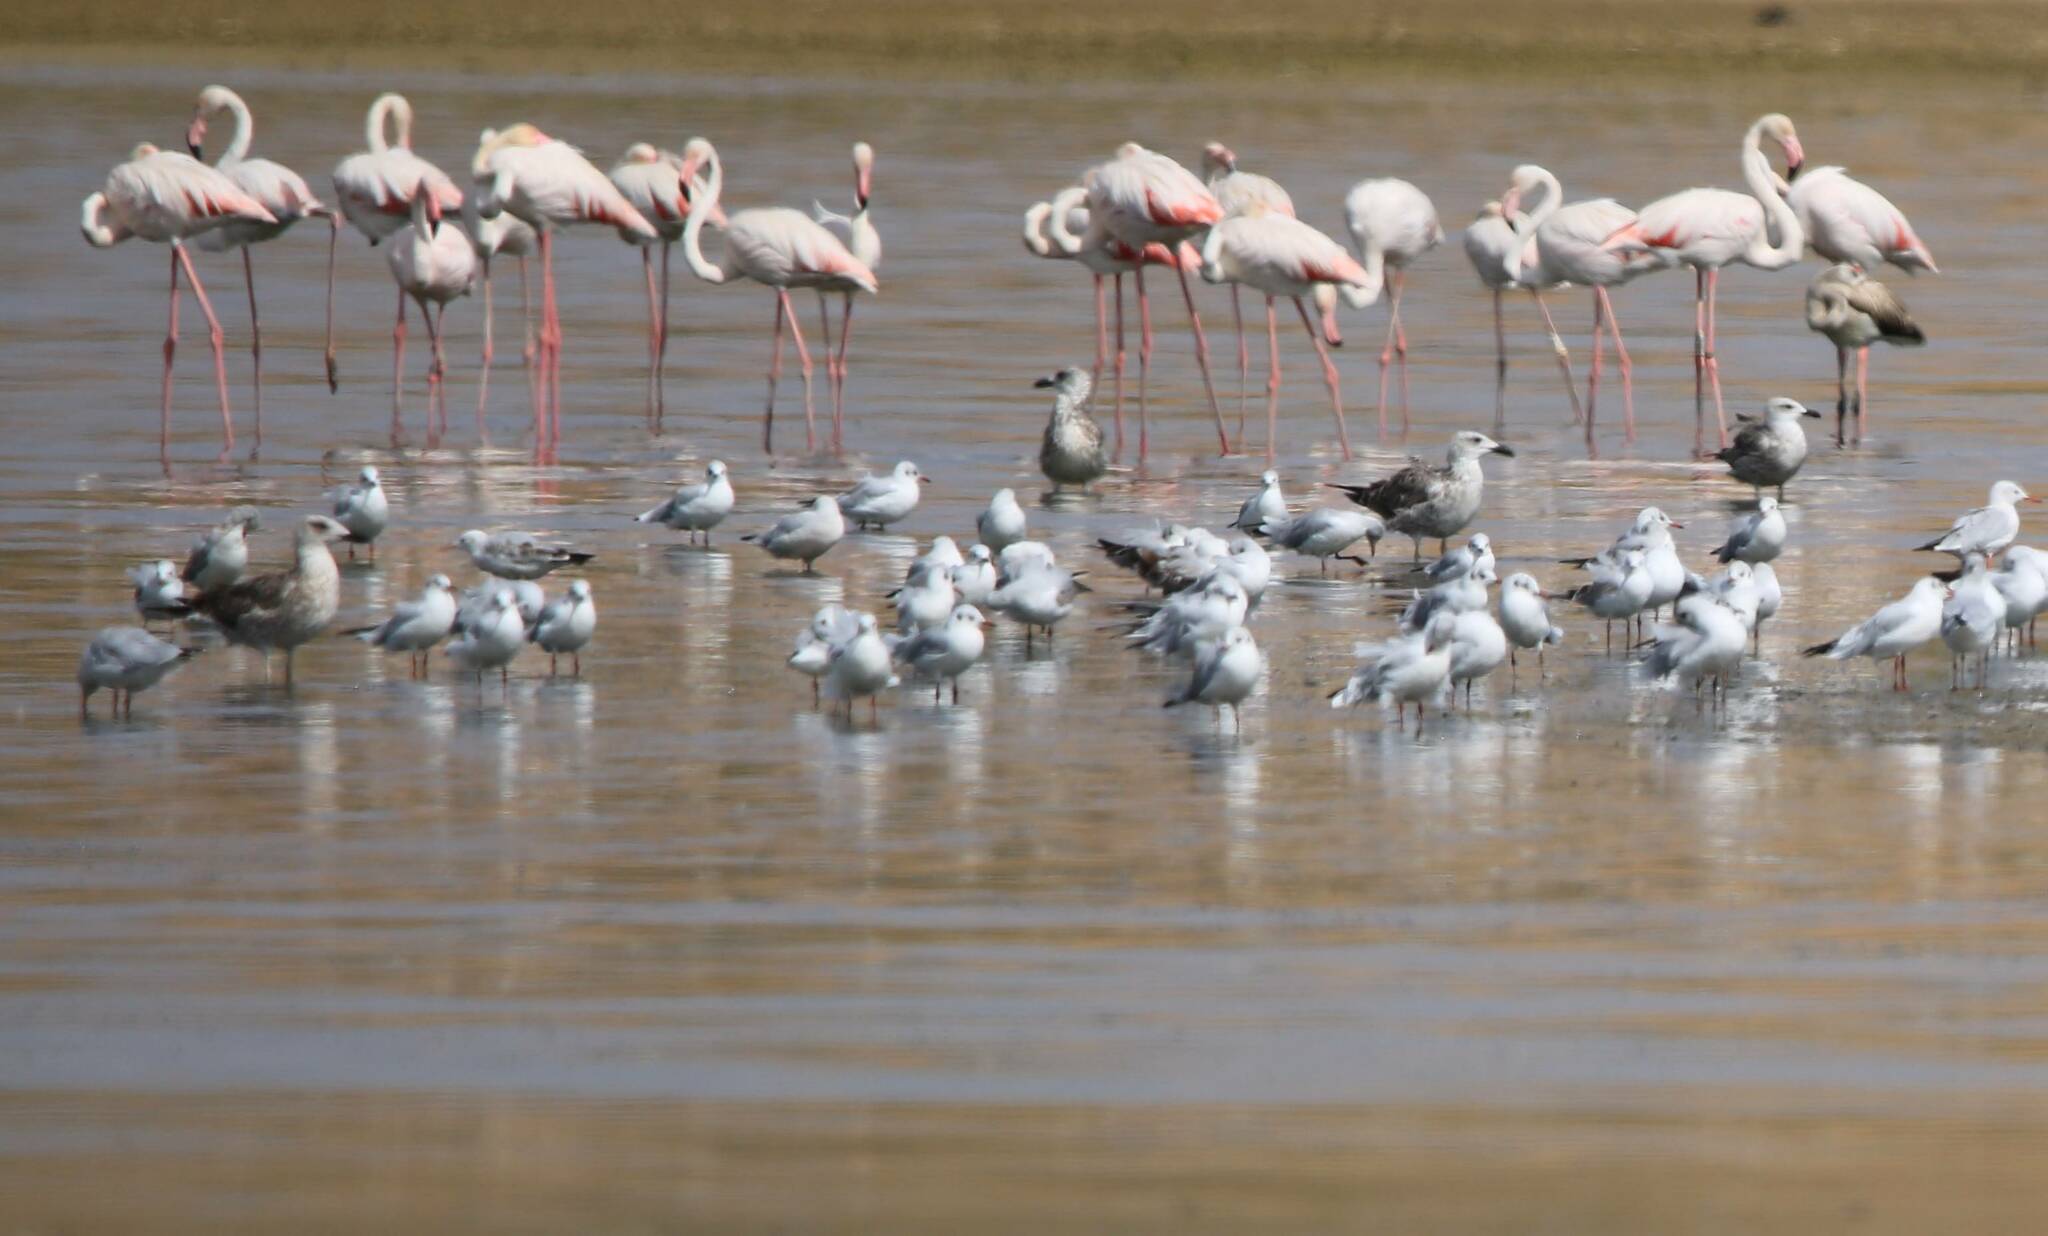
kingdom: Animalia
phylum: Chordata
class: Aves
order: Phoenicopteriformes
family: Phoenicopteridae
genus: Phoenicopterus
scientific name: Phoenicopterus roseus
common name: Greater flamingo
